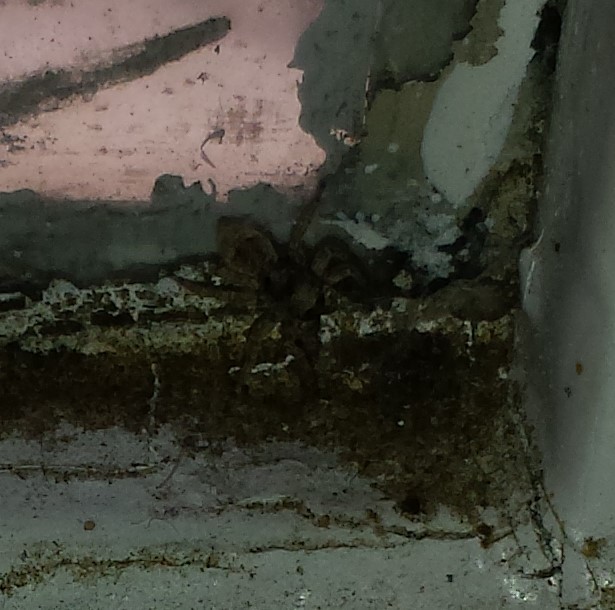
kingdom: Animalia
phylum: Arthropoda
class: Arachnida
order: Araneae
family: Salticidae
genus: Attulus
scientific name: Attulus fasciger
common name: Asiatic wall jumping spider
